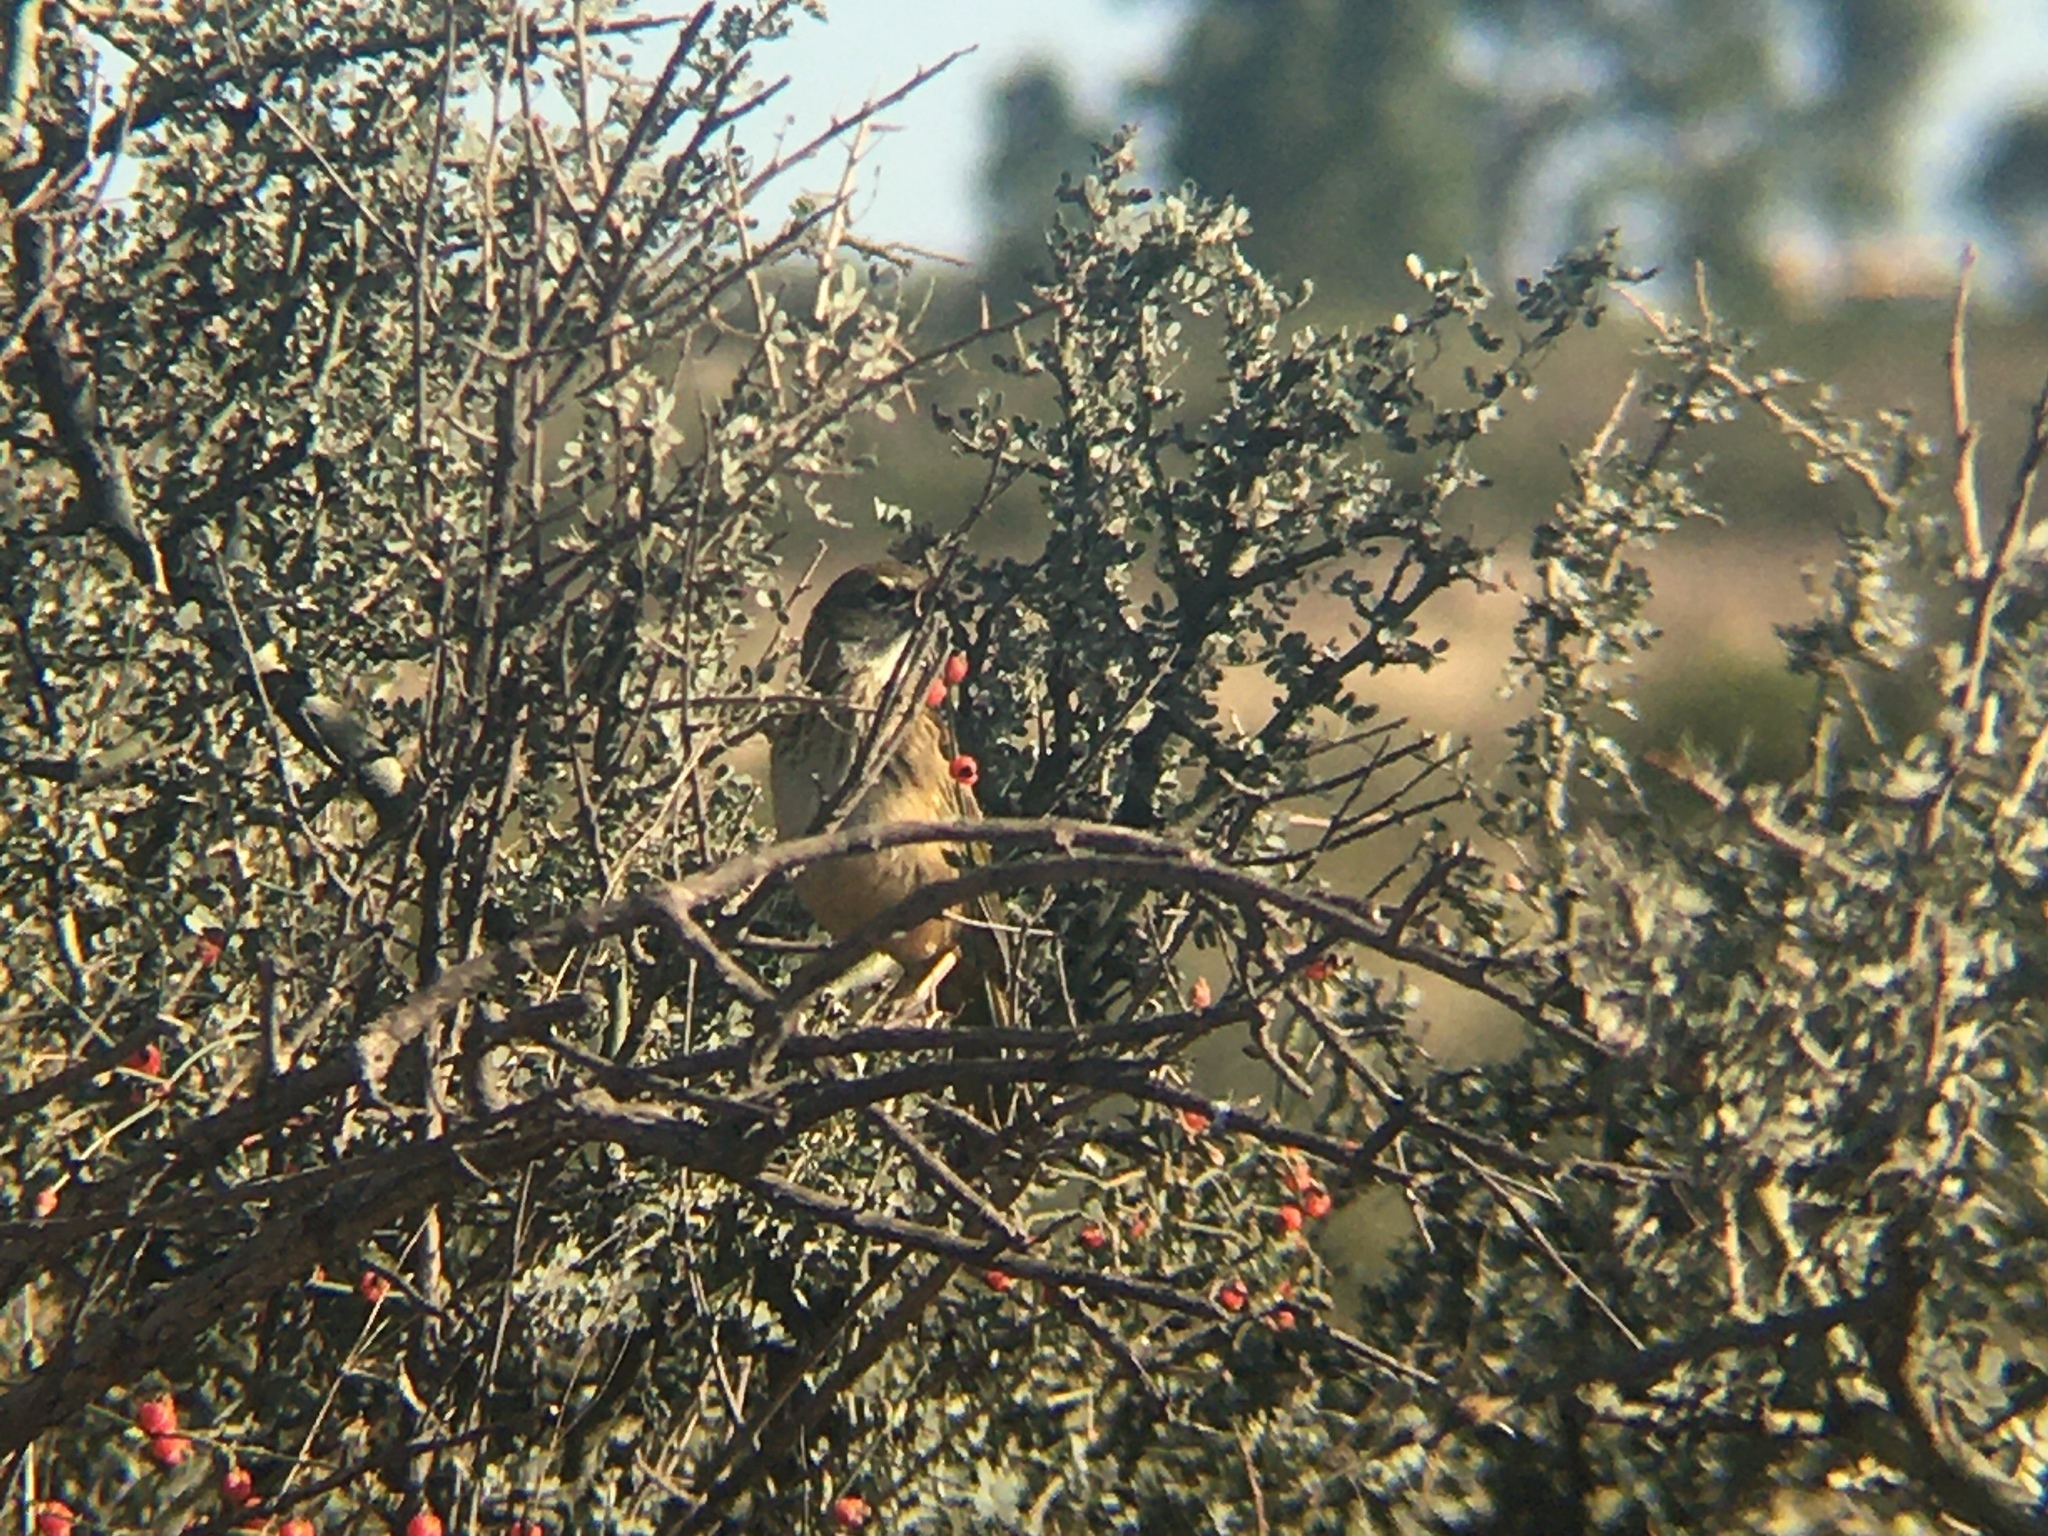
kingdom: Animalia
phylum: Chordata
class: Aves
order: Passeriformes
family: Thraupidae
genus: Embernagra
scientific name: Embernagra platensis
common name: Pampa finch
